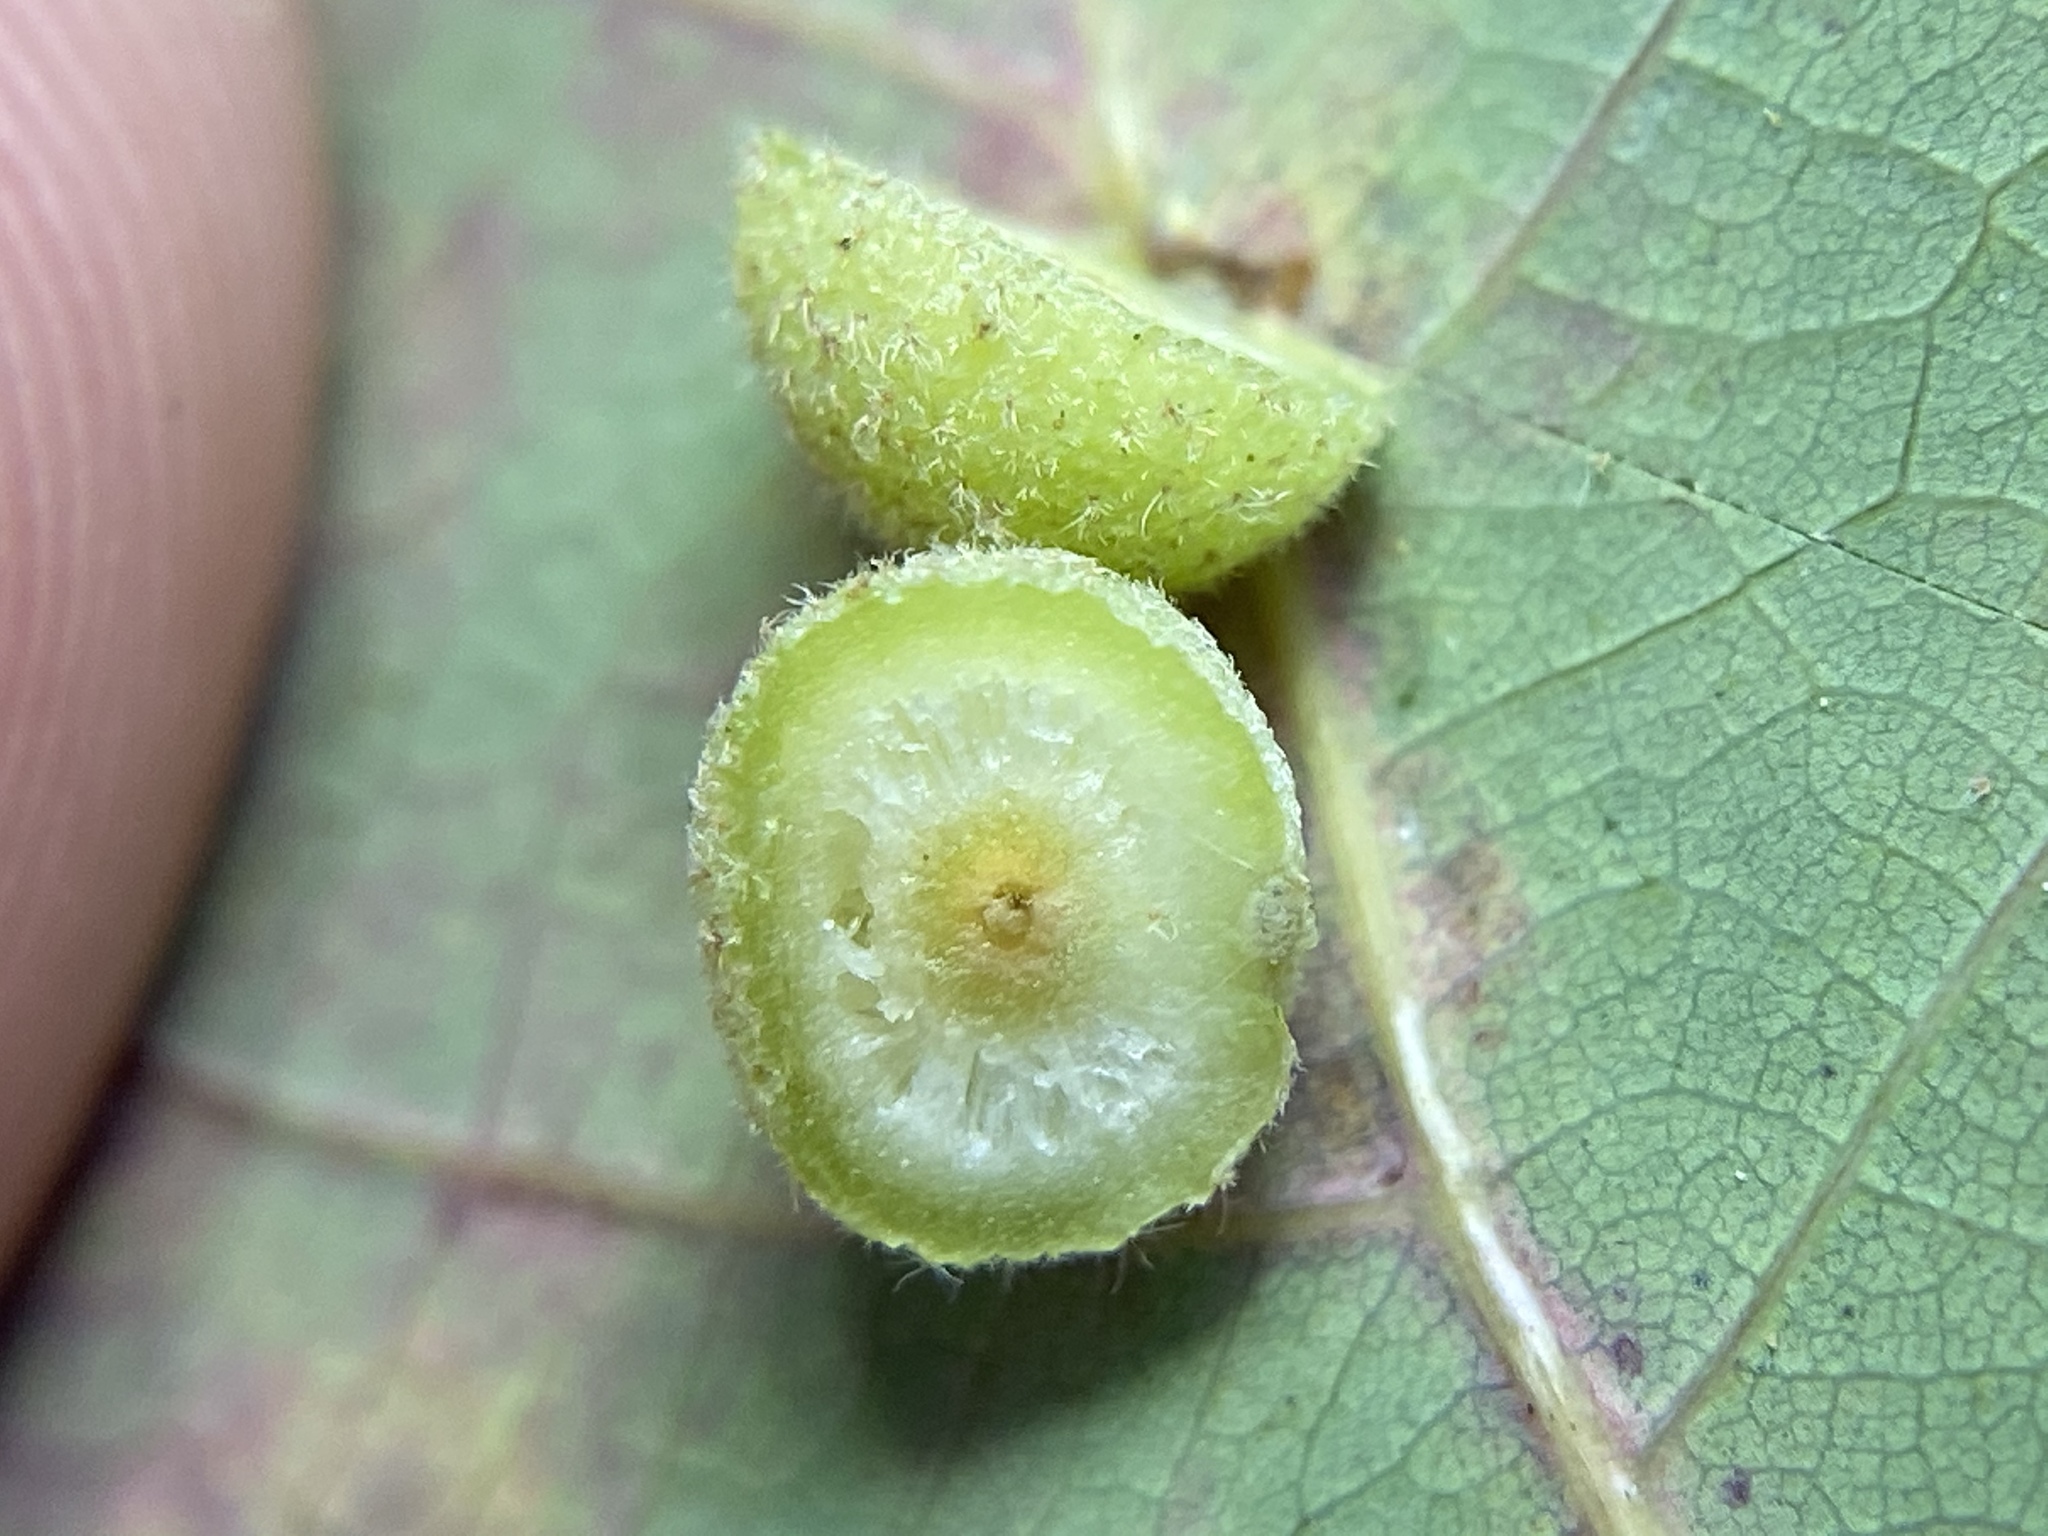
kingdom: Animalia
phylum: Arthropoda
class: Insecta
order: Hymenoptera
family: Cynipidae
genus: Philonix
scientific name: Philonix fulvicollis
